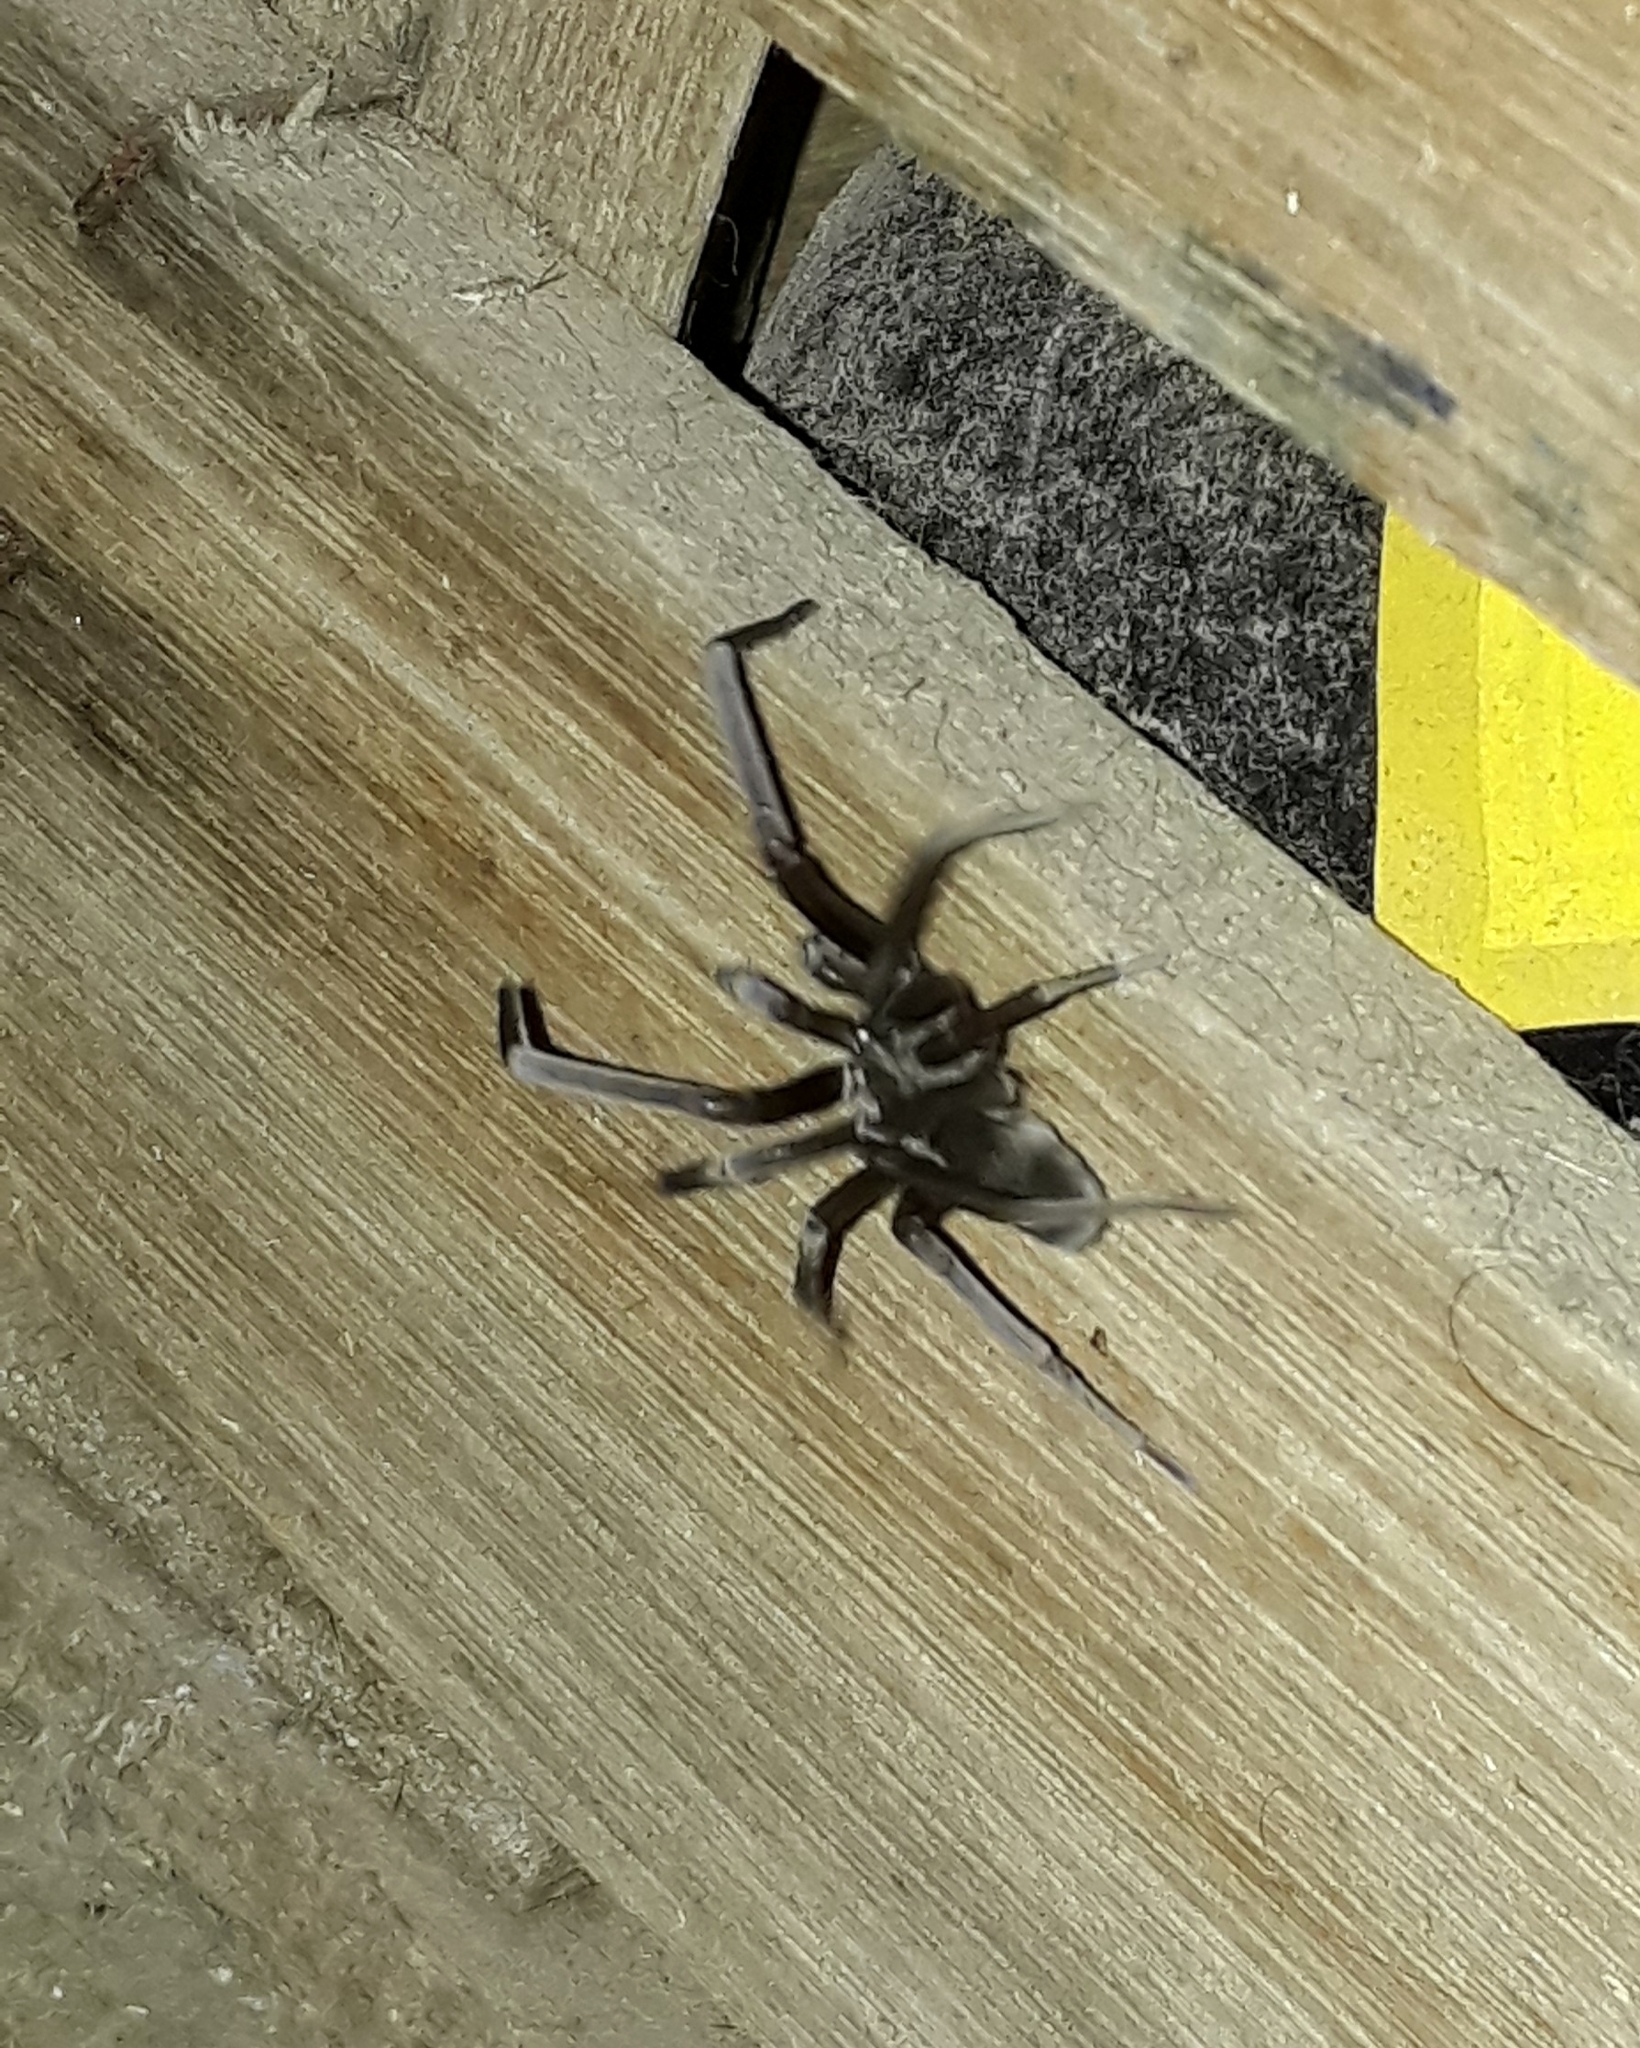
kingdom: Animalia
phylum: Arthropoda
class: Arachnida
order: Araneae
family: Filistatidae
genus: Kukulcania
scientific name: Kukulcania hibernalis
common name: Crevice weaver
